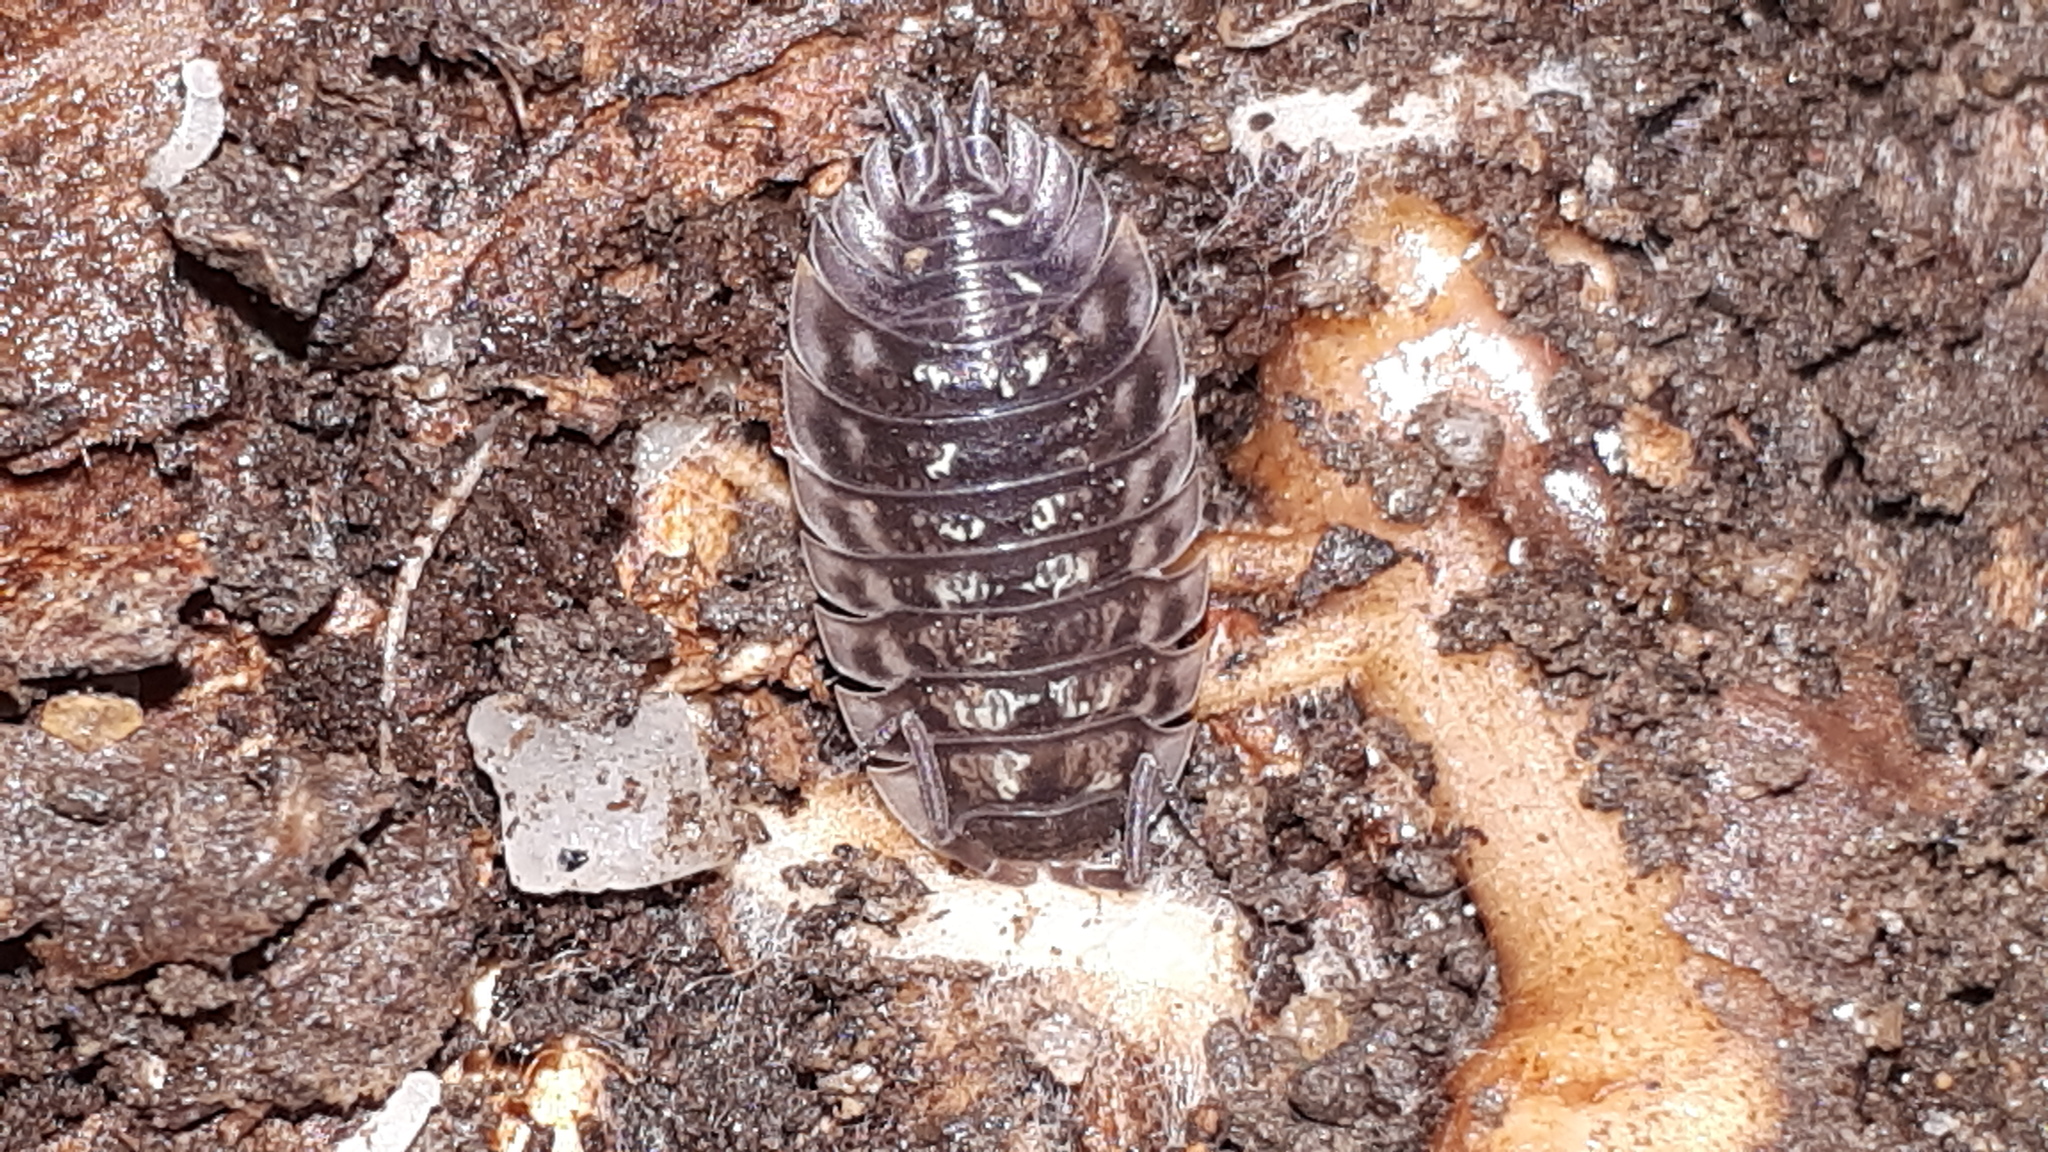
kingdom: Animalia
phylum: Arthropoda
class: Malacostraca
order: Isopoda
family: Oniscidae
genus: Oniscus
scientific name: Oniscus asellus
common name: Common shiny woodlouse
